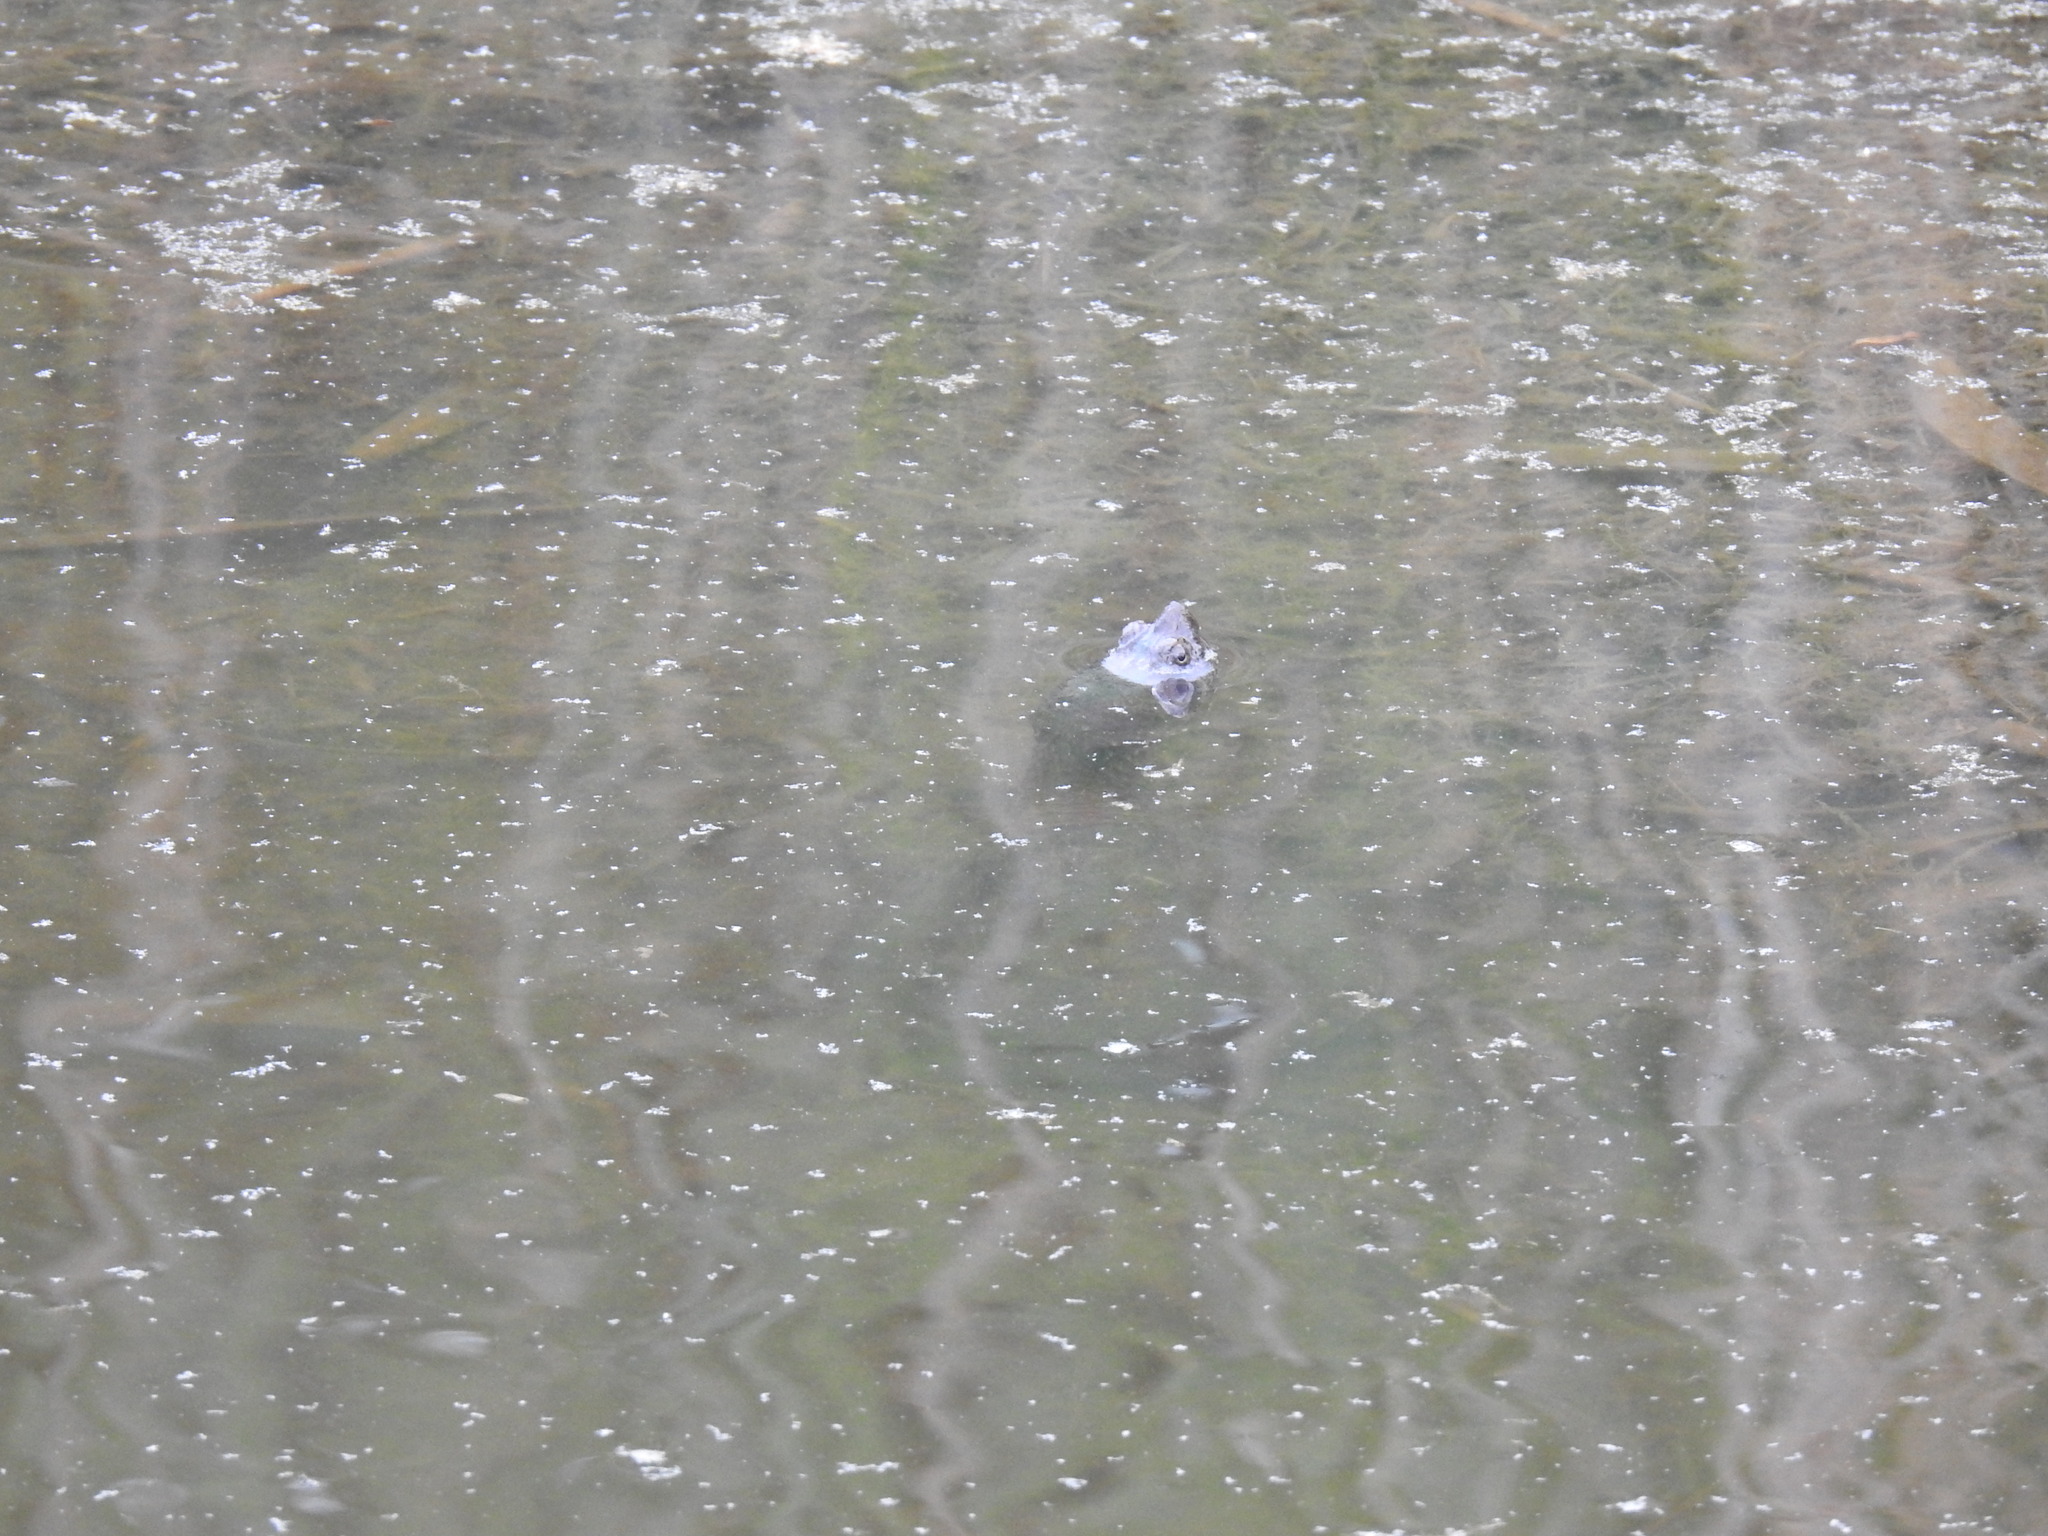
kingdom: Animalia
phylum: Chordata
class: Testudines
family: Chelydridae
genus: Chelydra
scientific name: Chelydra serpentina
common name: Common snapping turtle
